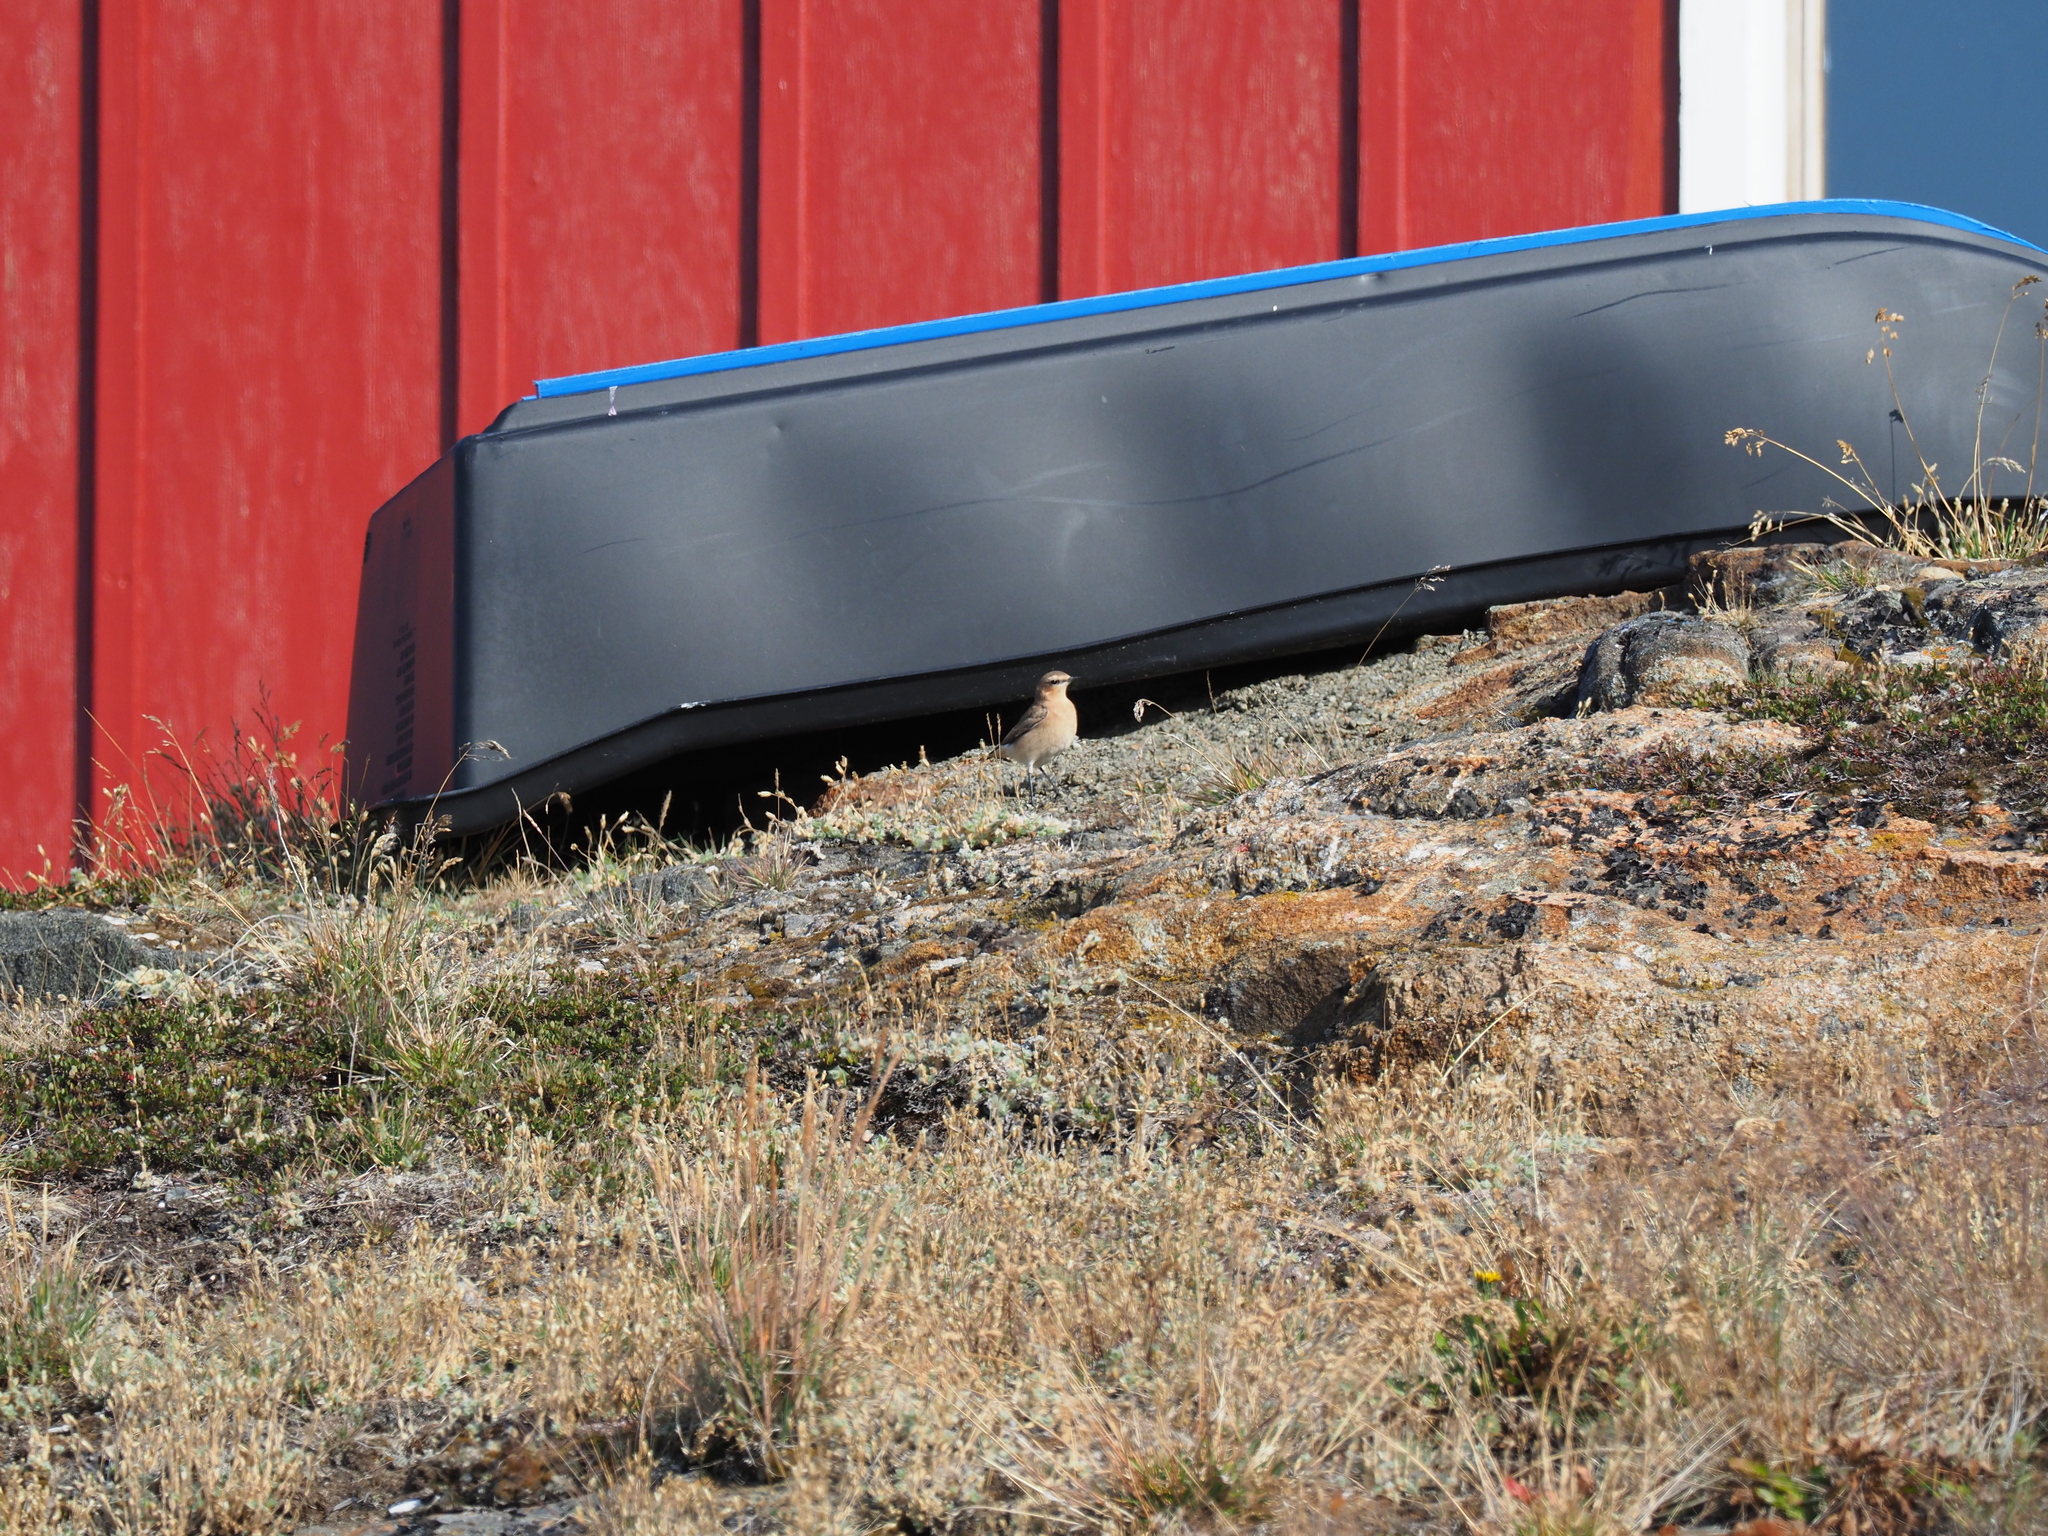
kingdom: Animalia
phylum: Chordata
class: Aves
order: Passeriformes
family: Muscicapidae
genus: Oenanthe
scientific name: Oenanthe oenanthe
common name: Northern wheatear
